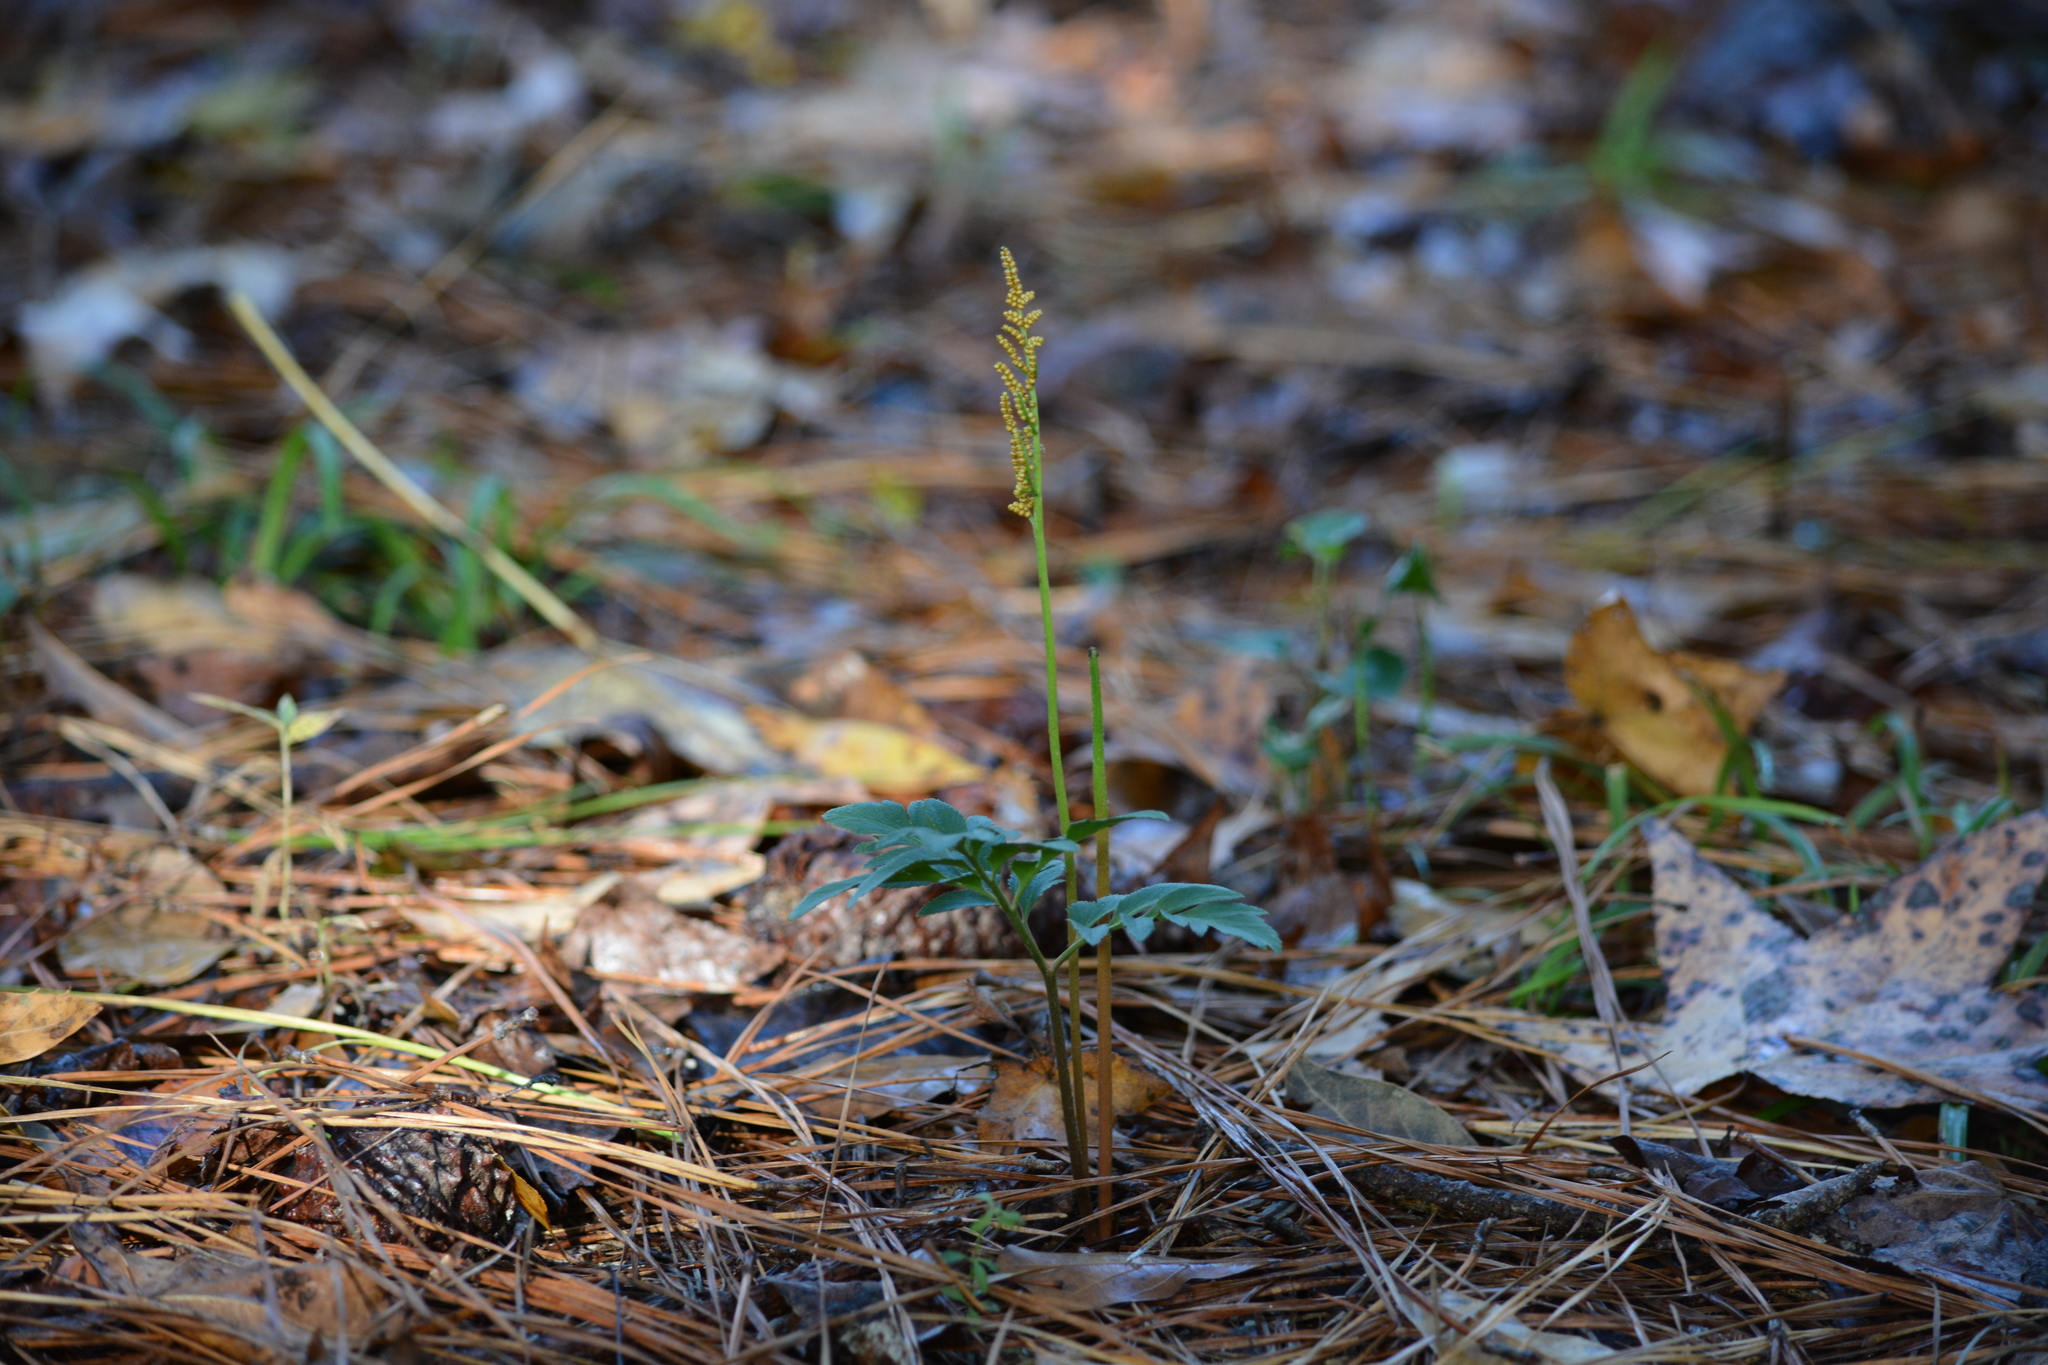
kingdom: Plantae
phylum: Tracheophyta
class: Polypodiopsida
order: Ophioglossales
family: Ophioglossaceae
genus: Sceptridium
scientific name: Sceptridium biternatum
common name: Sparse-lobed grapefern
